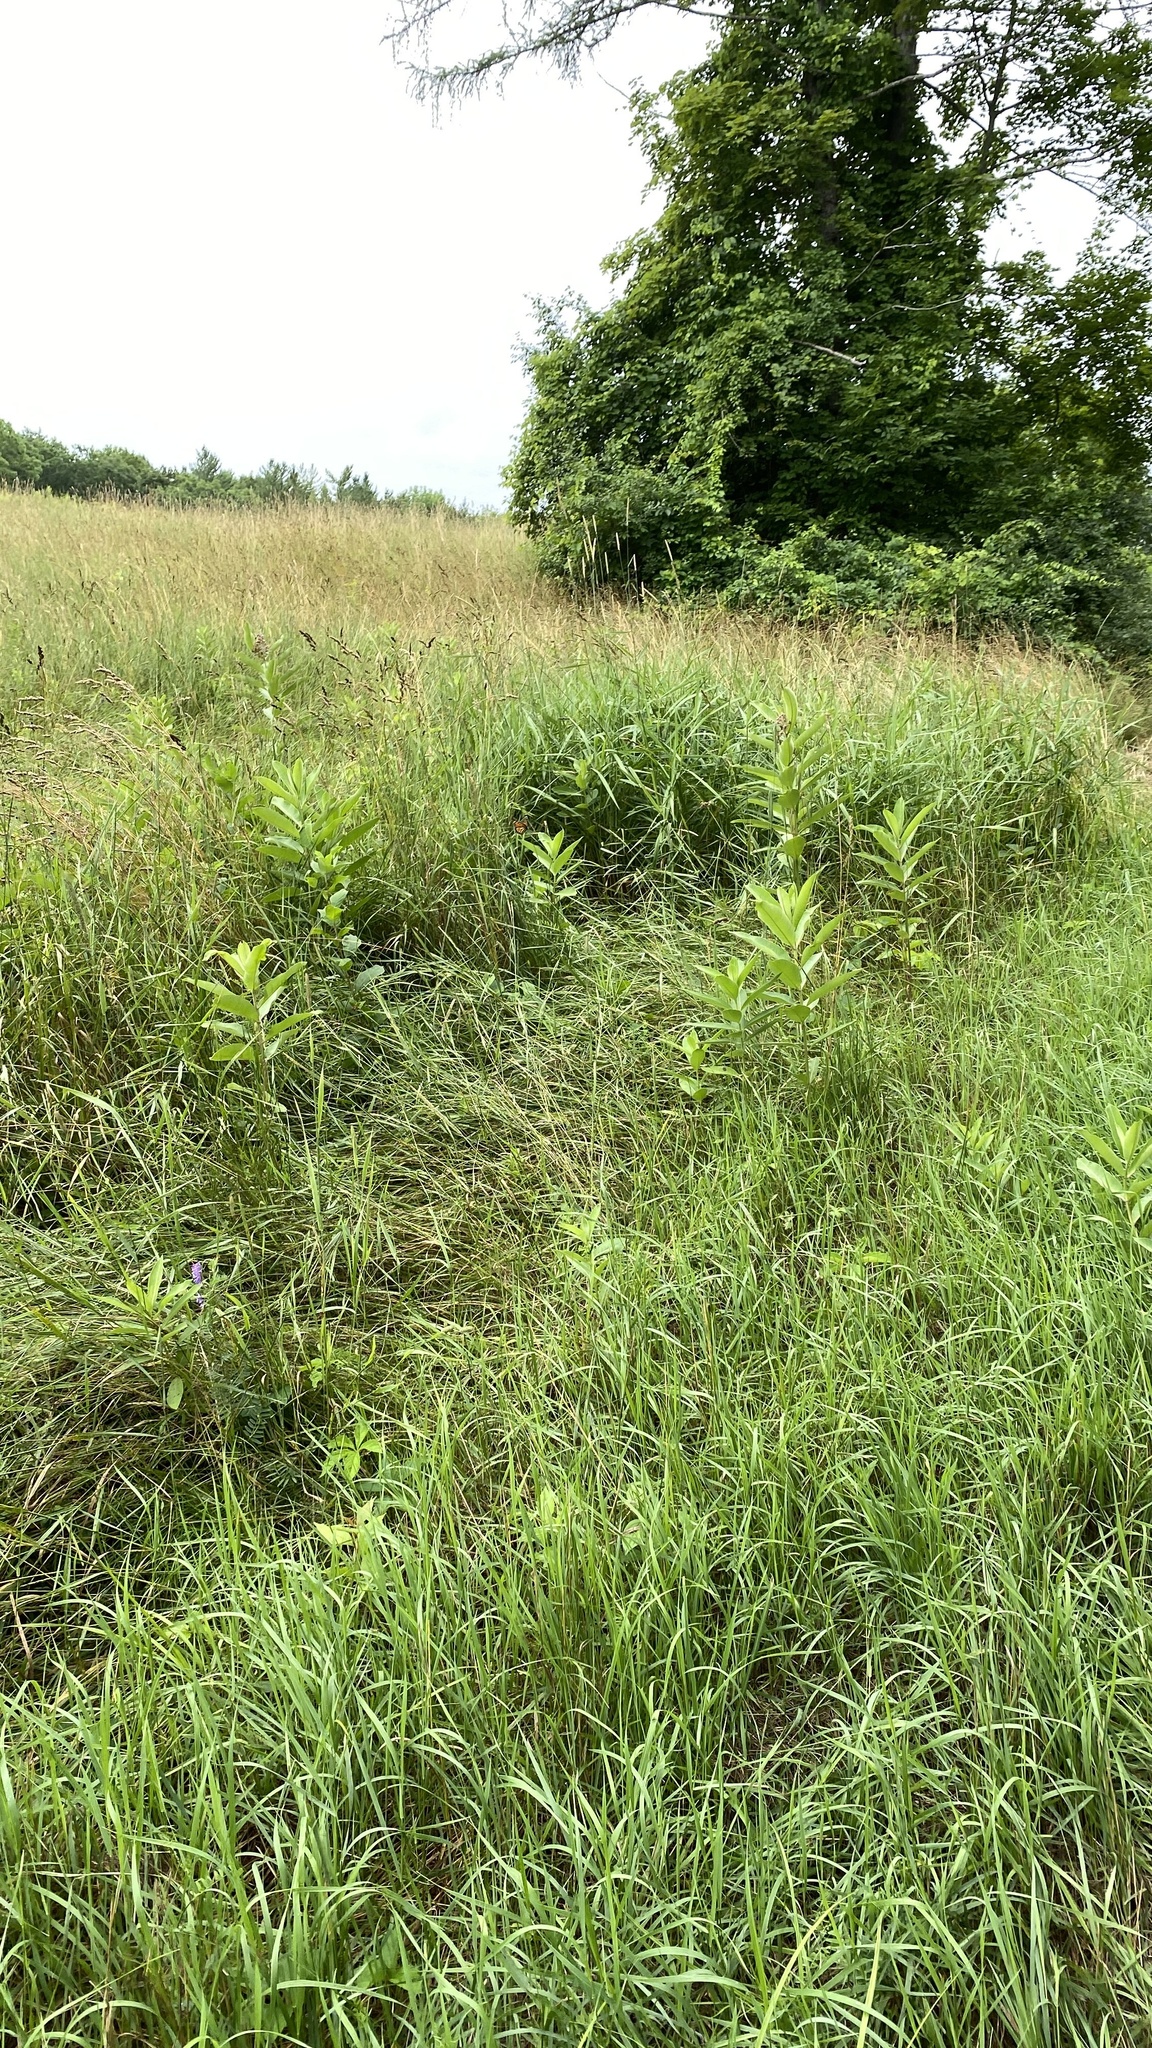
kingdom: Plantae
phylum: Tracheophyta
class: Magnoliopsida
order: Gentianales
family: Apocynaceae
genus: Asclepias
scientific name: Asclepias syriaca
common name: Common milkweed
